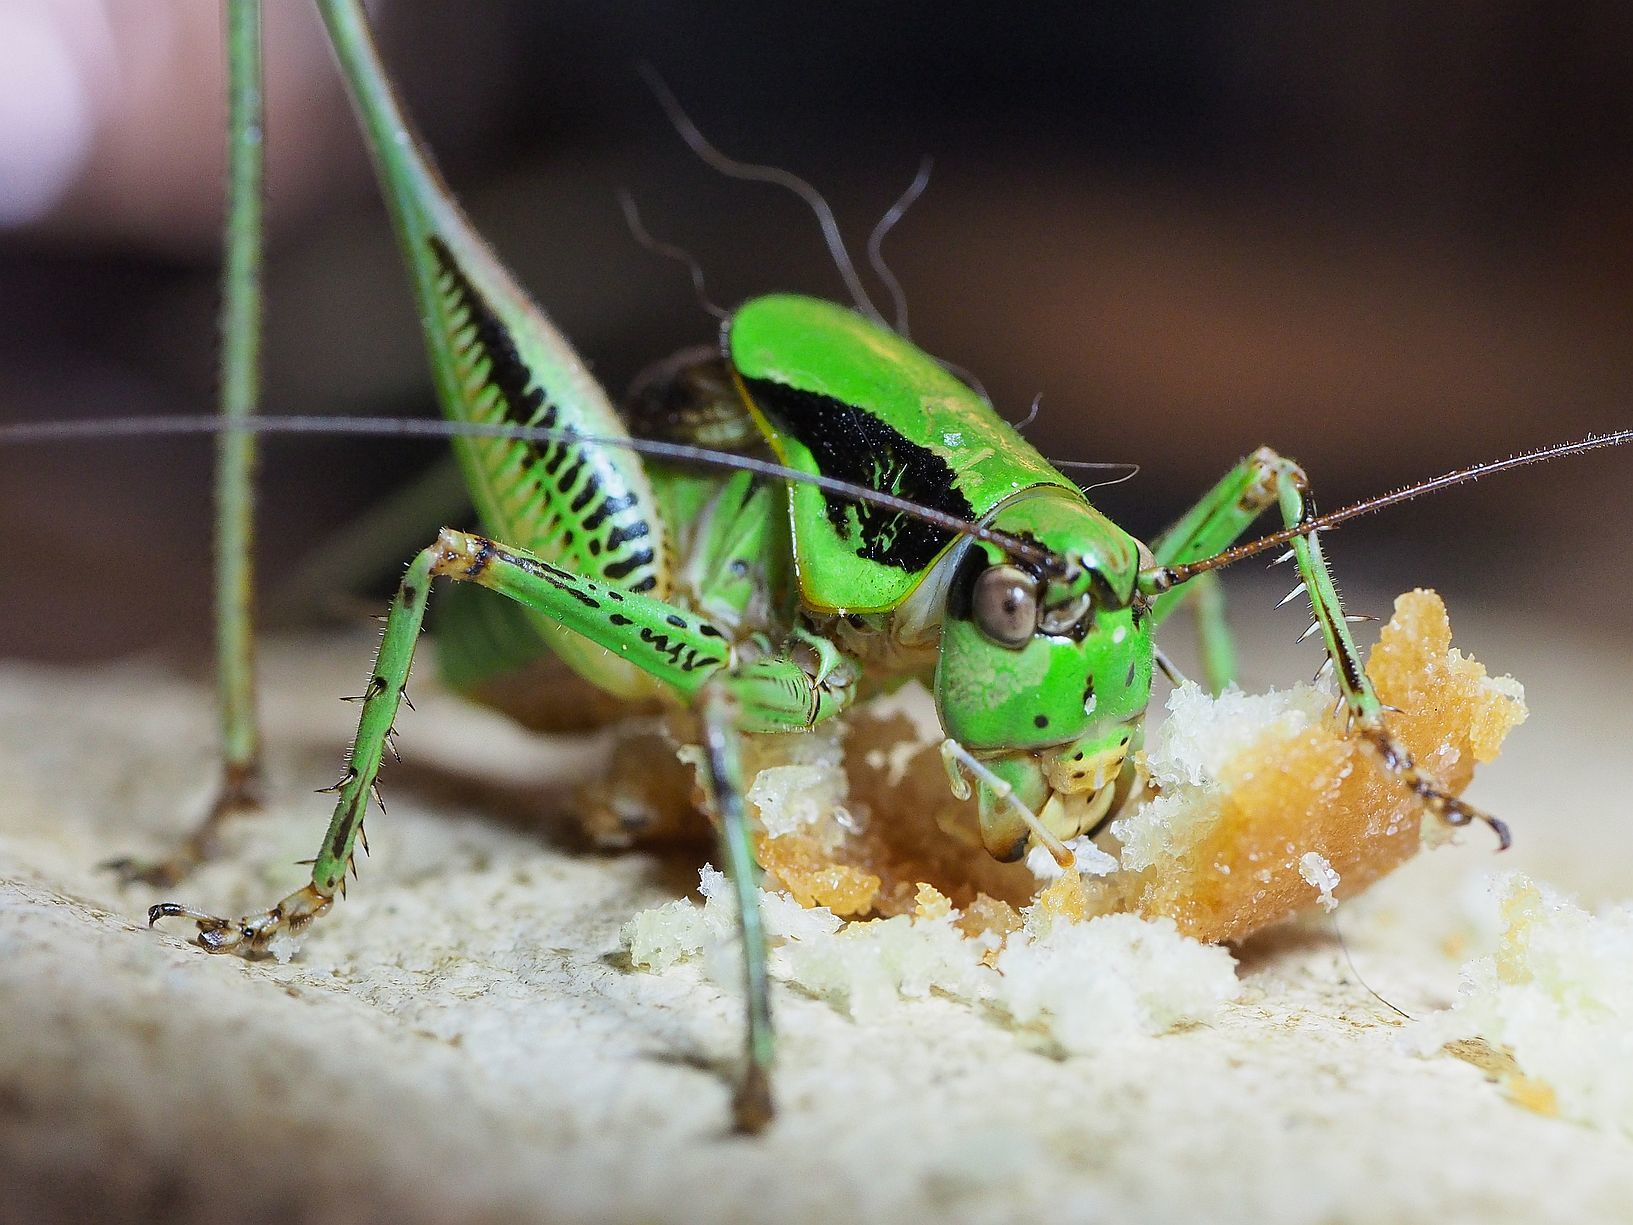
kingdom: Animalia
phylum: Arthropoda
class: Insecta
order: Orthoptera
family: Tettigoniidae
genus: Eupholidoptera
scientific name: Eupholidoptera schmidti
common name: Schmidt's marbled bush-cricket
